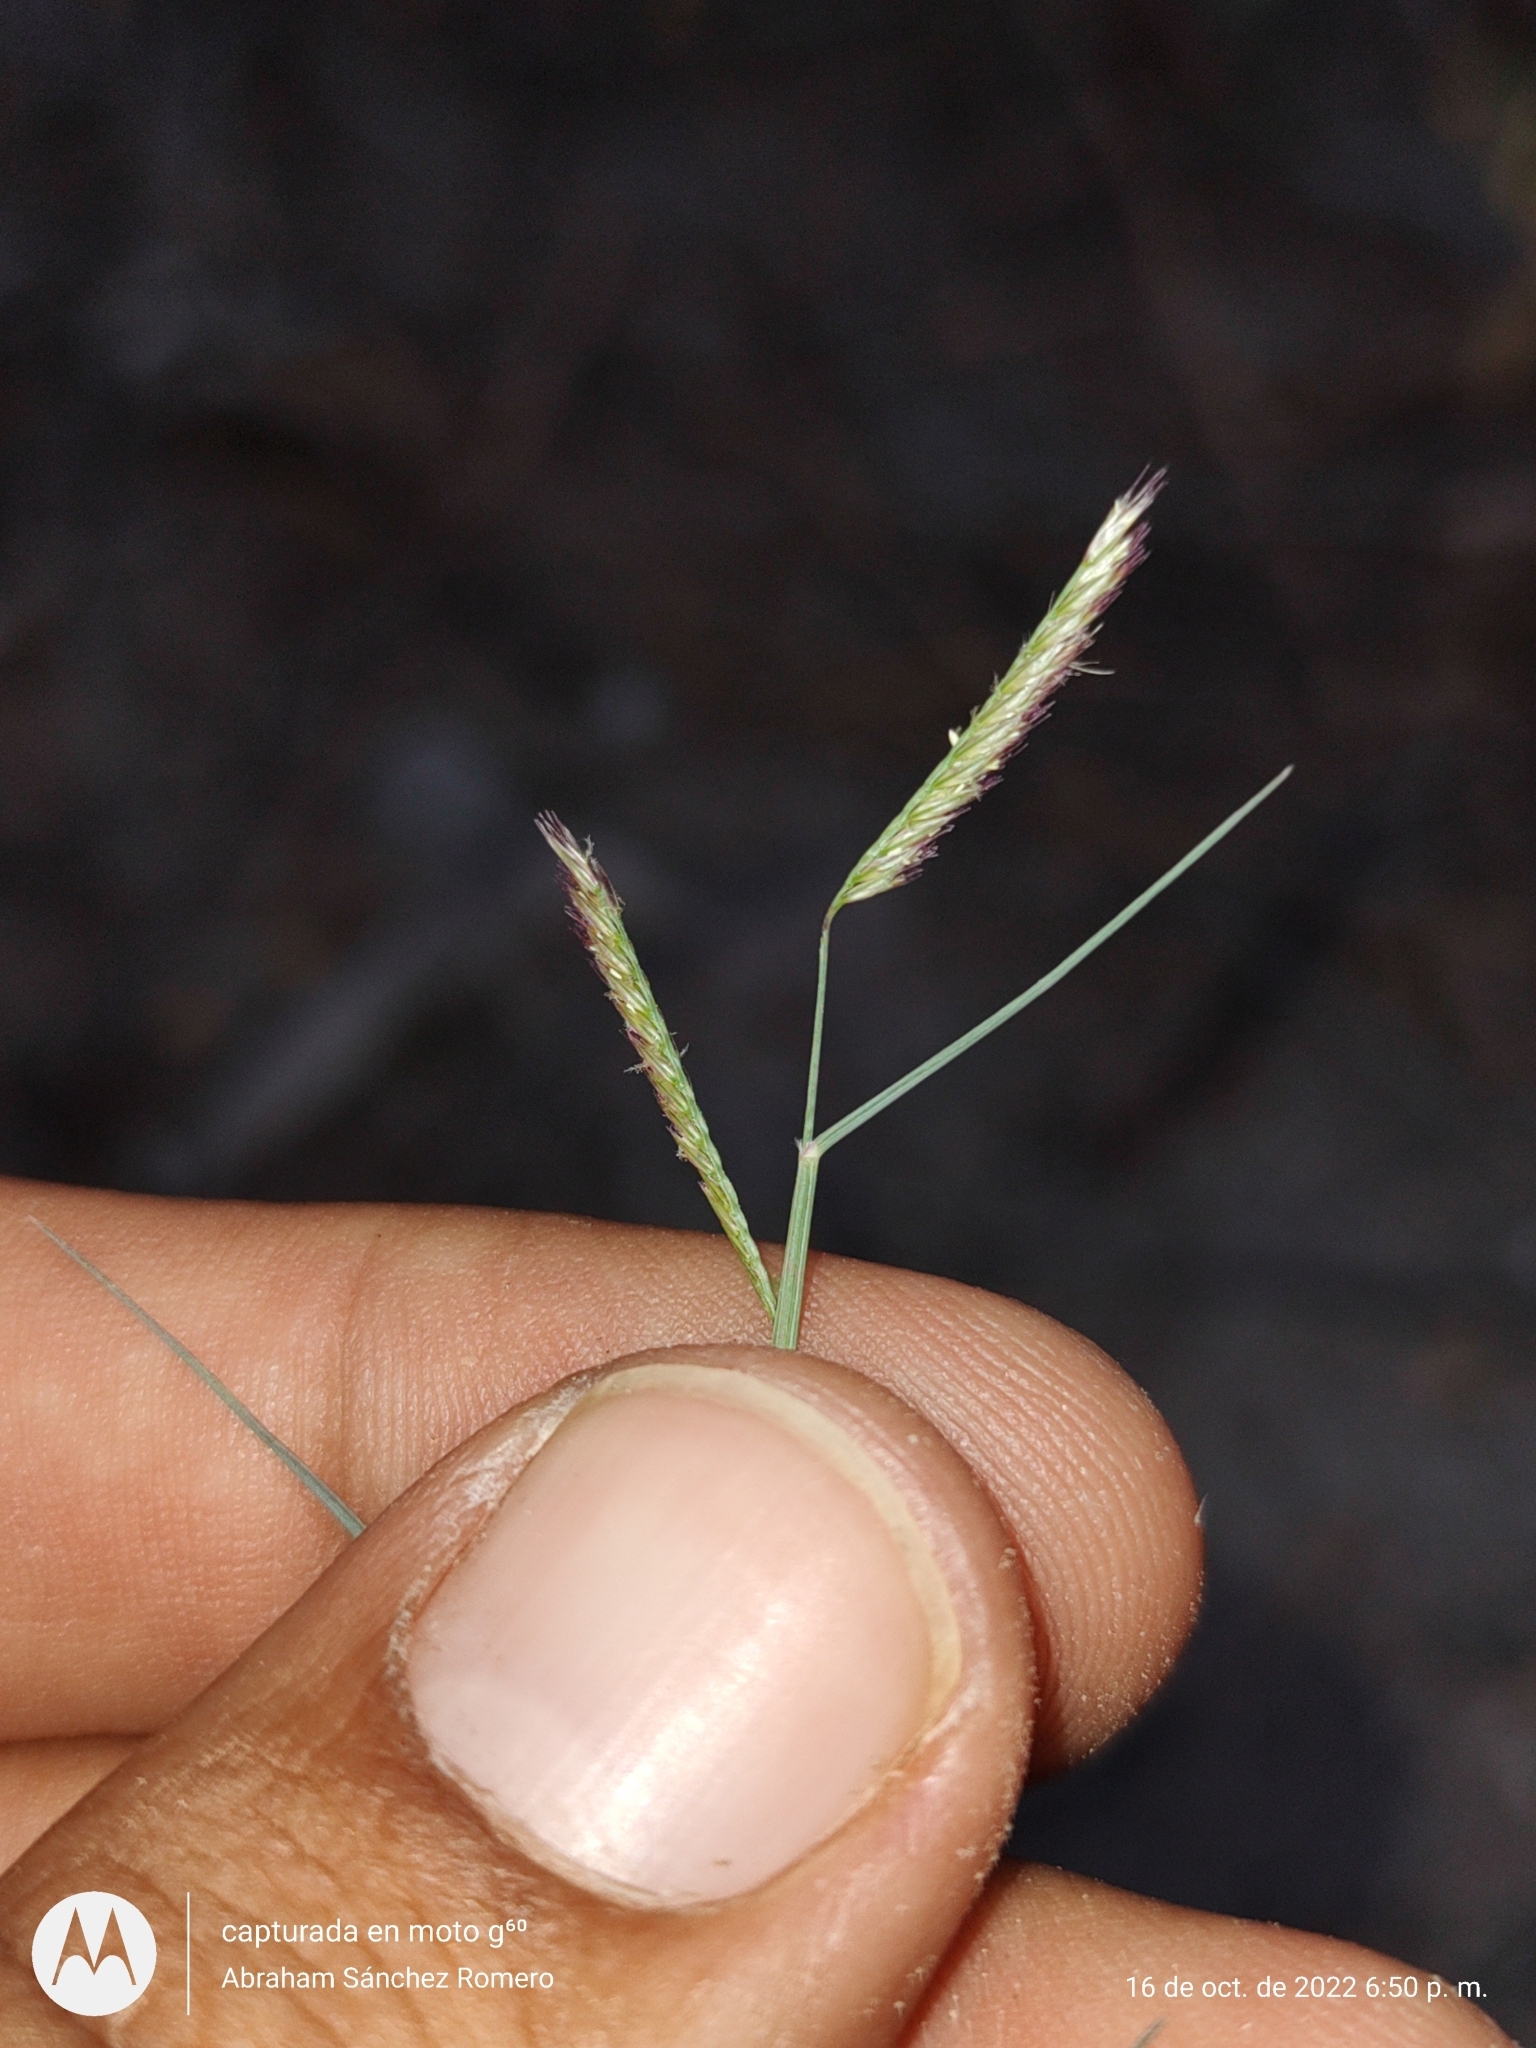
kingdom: Plantae
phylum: Tracheophyta
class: Liliopsida
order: Poales
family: Poaceae
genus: Bouteloua
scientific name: Bouteloua barbata
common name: Six-weeks grama
